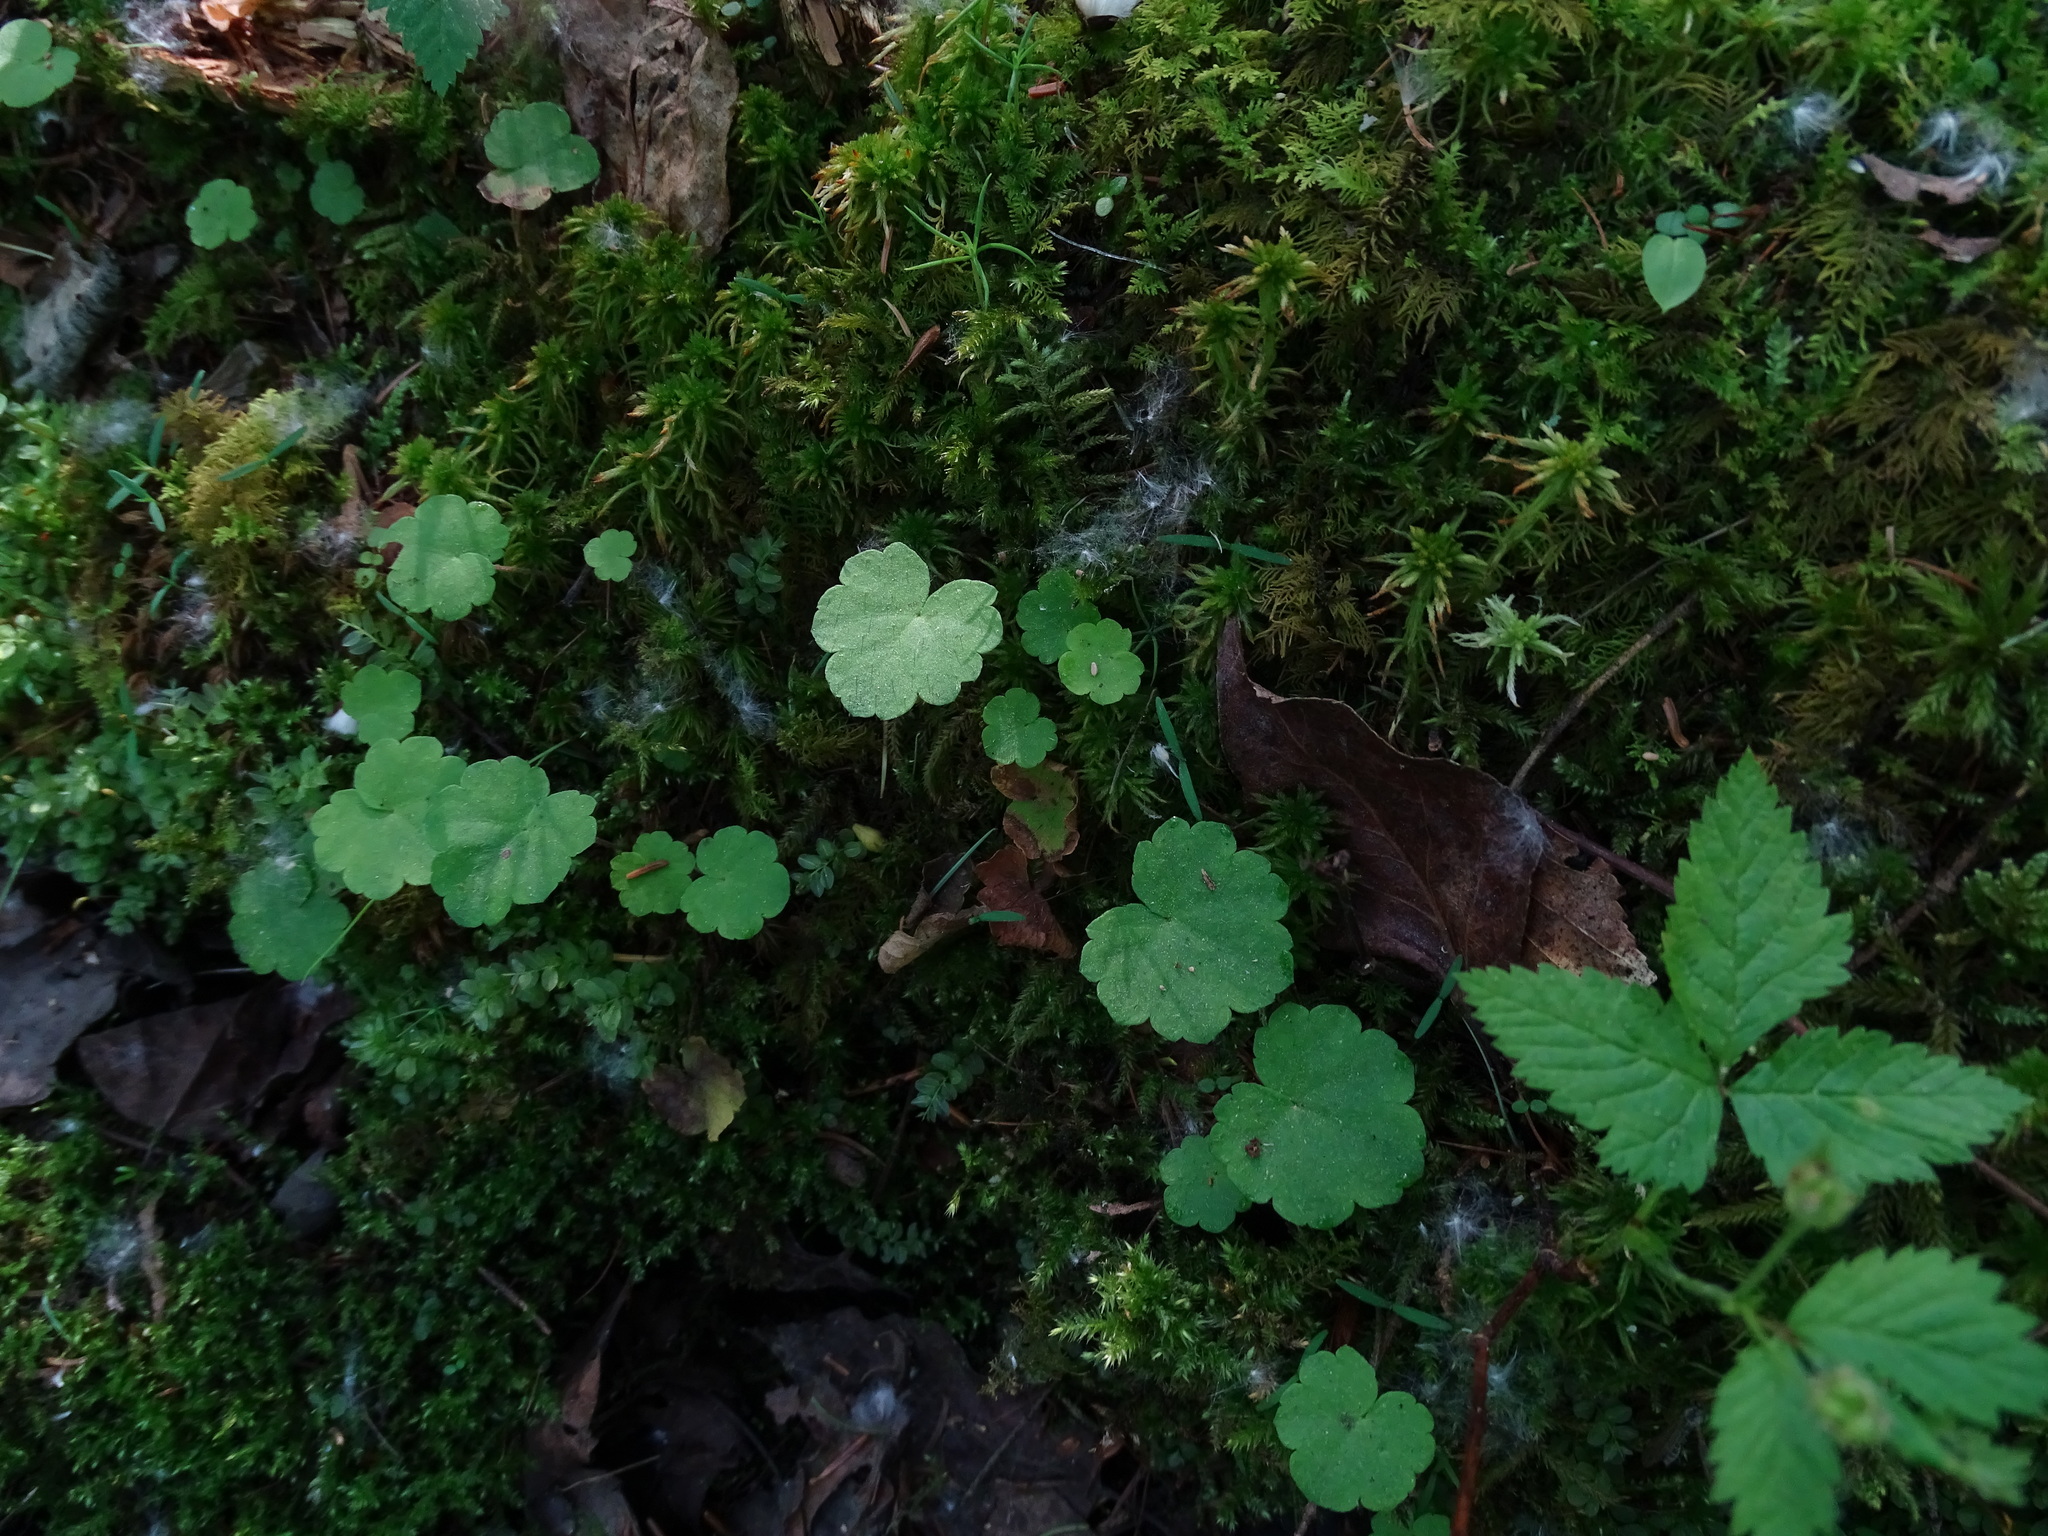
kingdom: Plantae
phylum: Tracheophyta
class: Magnoliopsida
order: Saxifragales
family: Saxifragaceae
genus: Mitella
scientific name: Mitella nuda
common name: Bare-stemmed bishop's-cap
